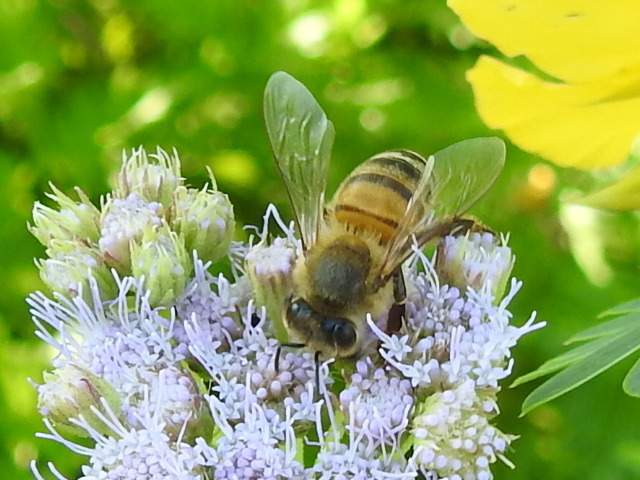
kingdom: Animalia
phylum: Arthropoda
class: Insecta
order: Hymenoptera
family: Apidae
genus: Apis
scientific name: Apis mellifera
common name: Honey bee
